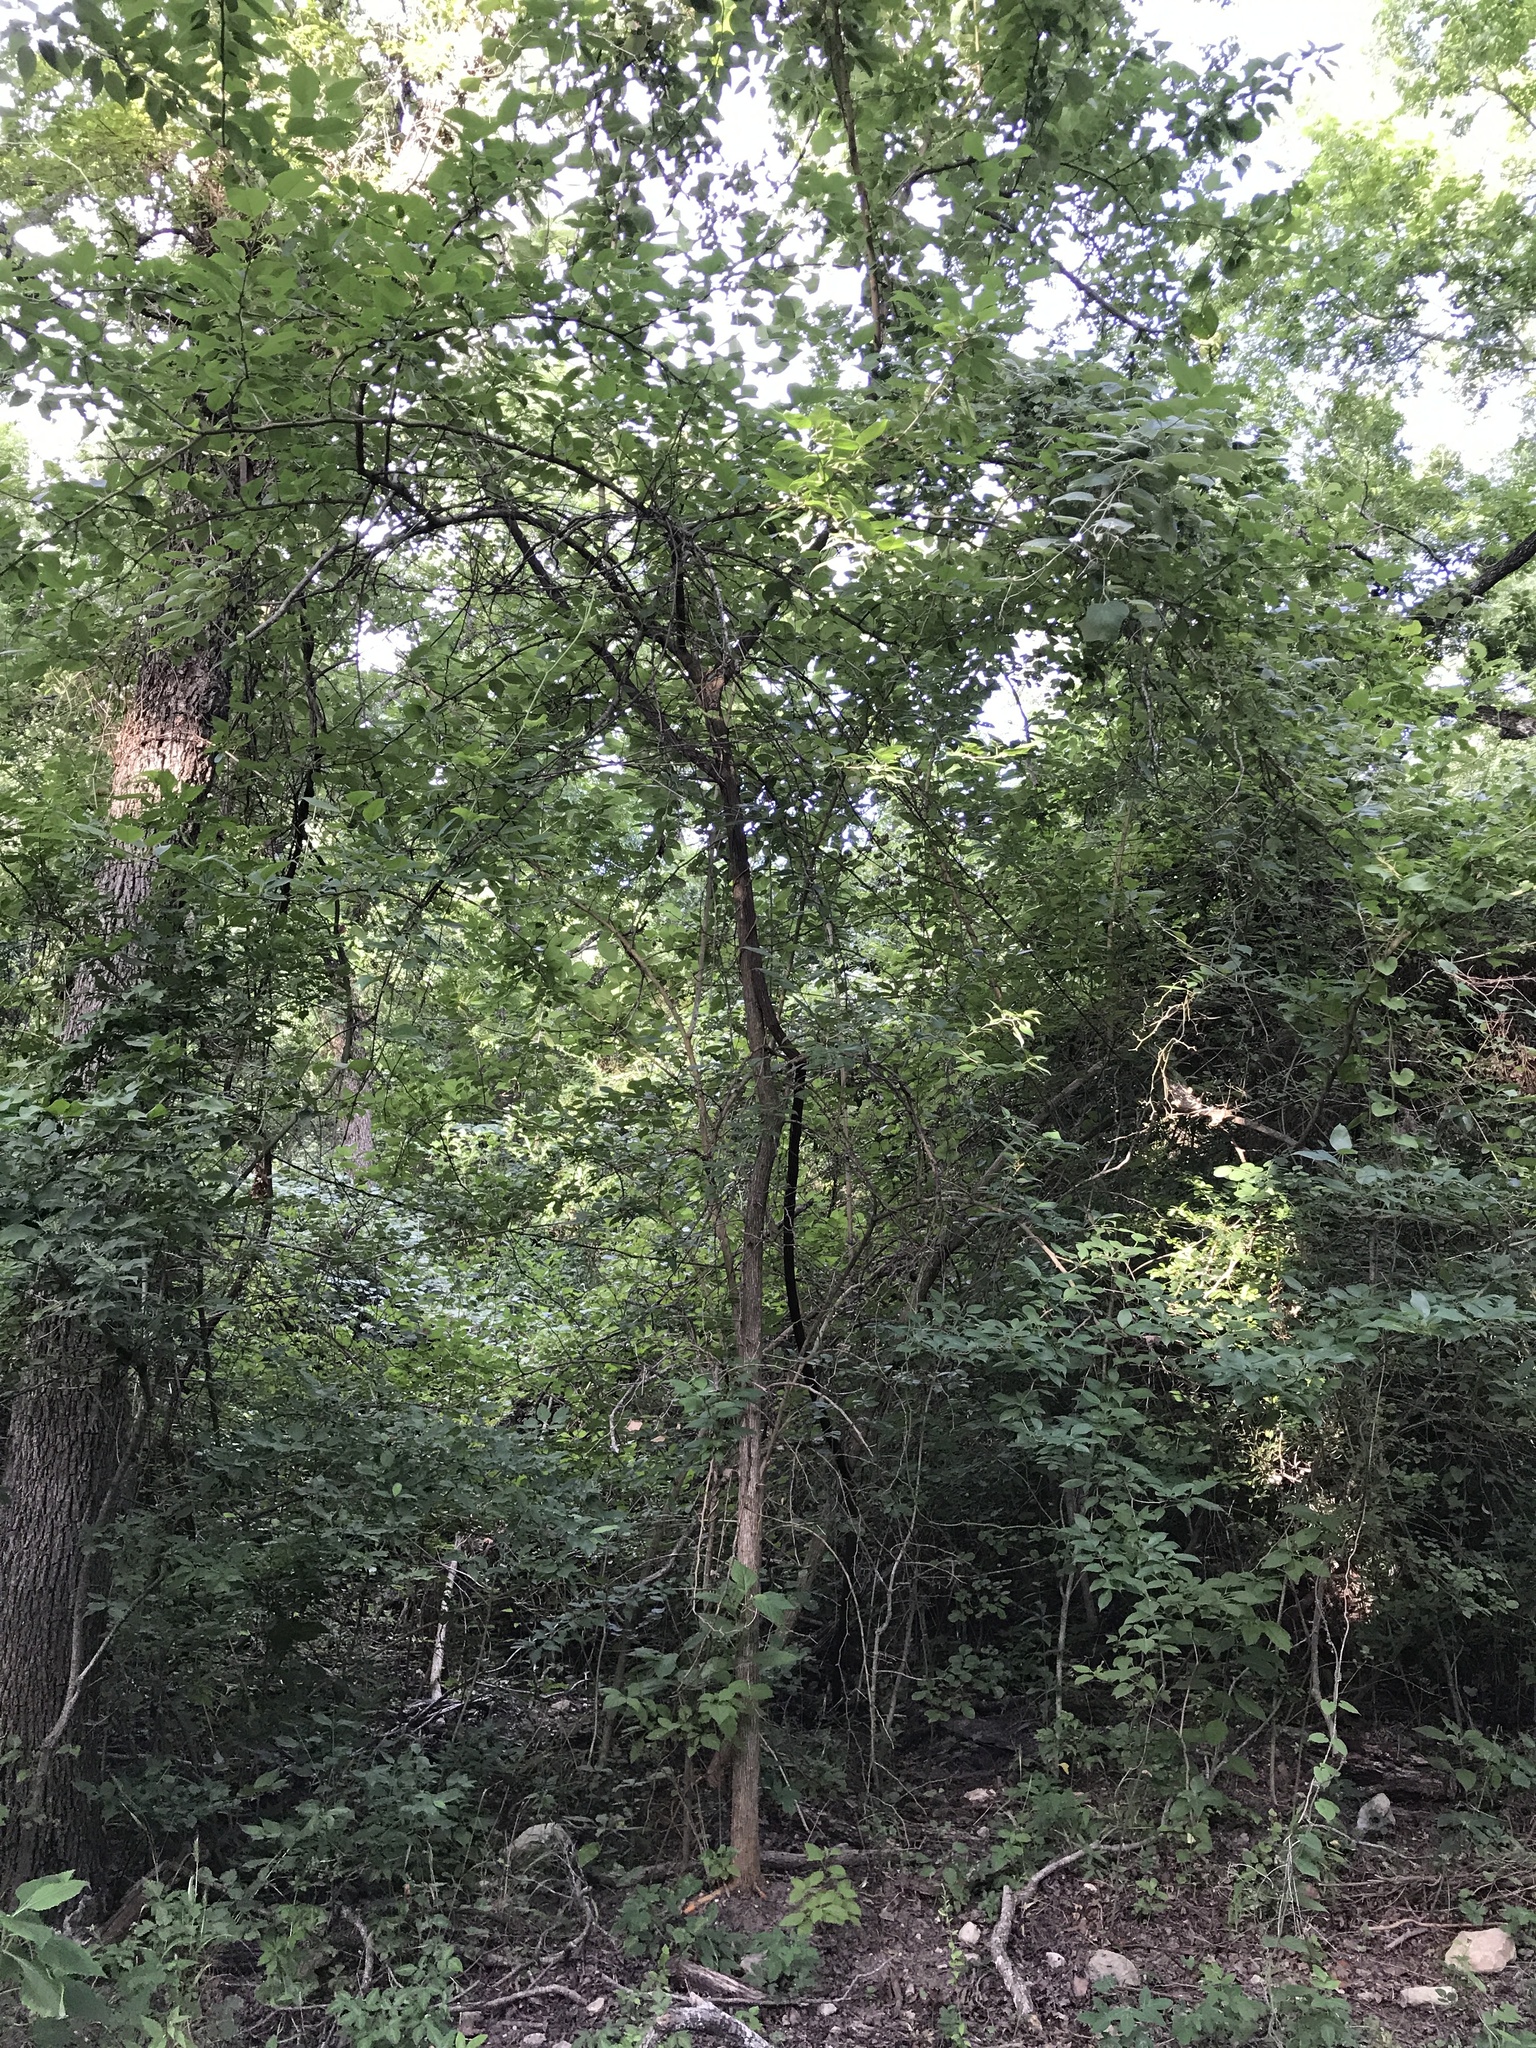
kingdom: Plantae
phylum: Tracheophyta
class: Magnoliopsida
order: Rosales
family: Moraceae
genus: Maclura
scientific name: Maclura pomifera
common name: Osage-orange
